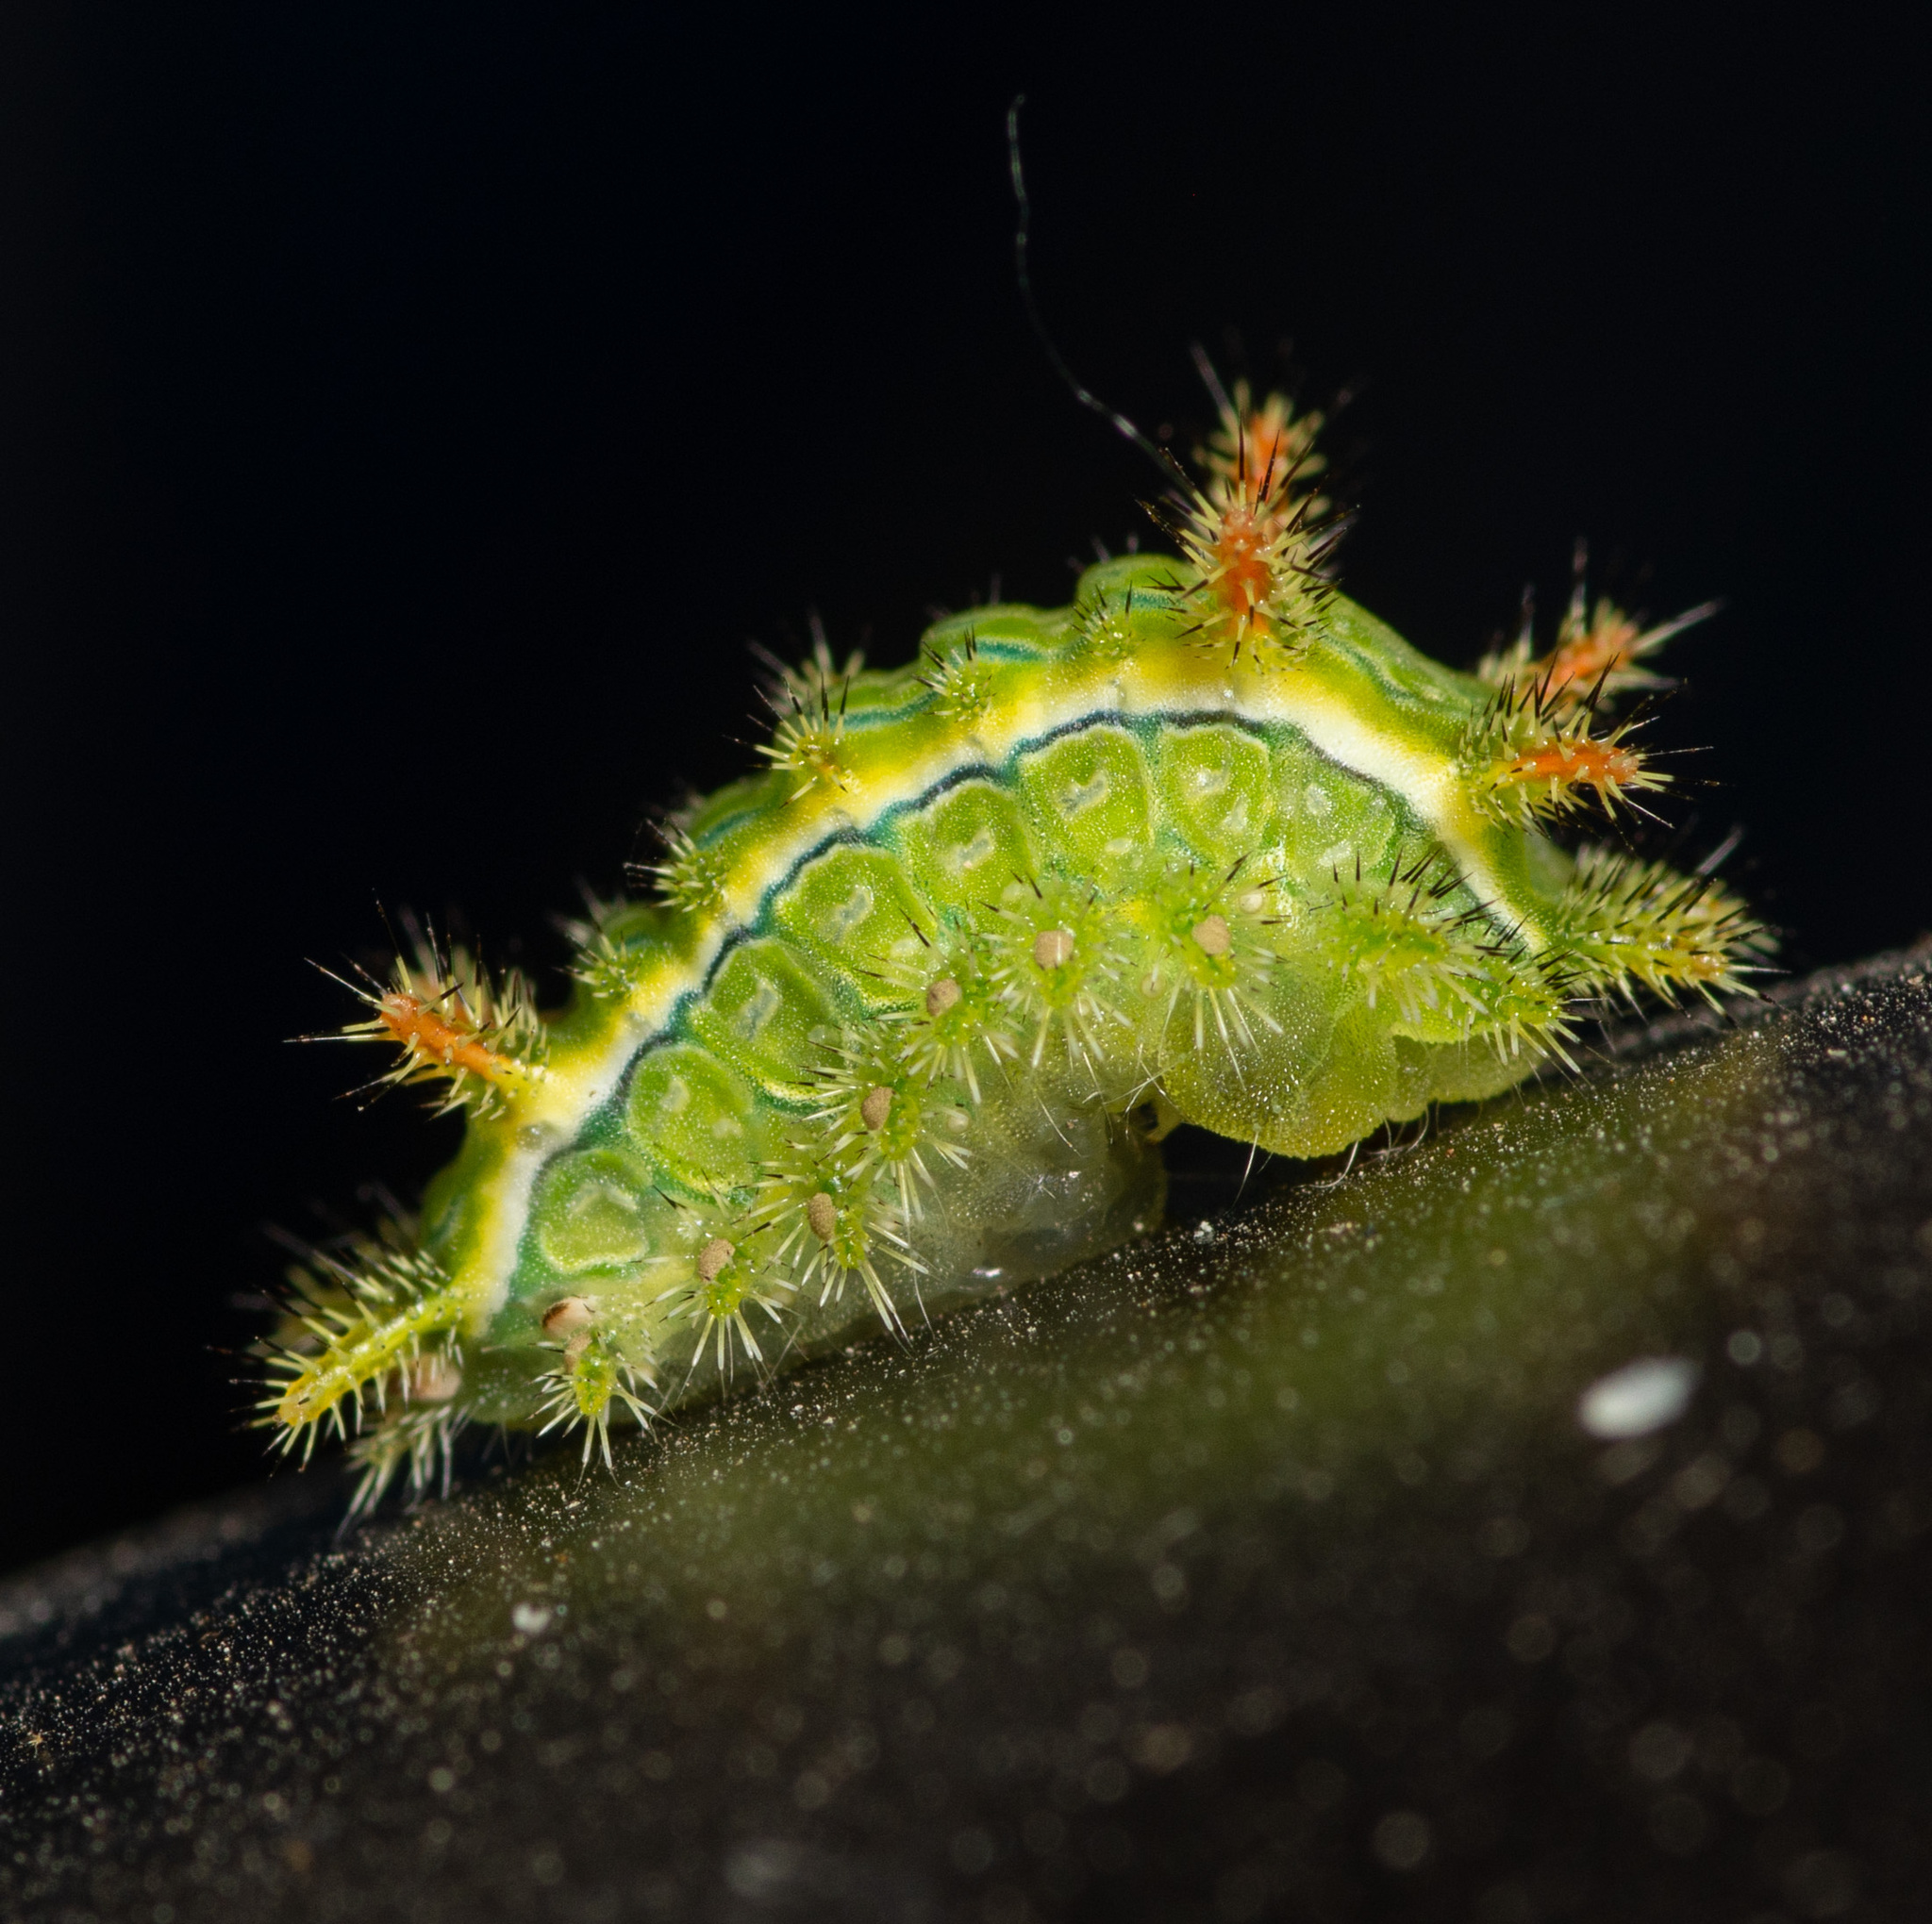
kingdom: Animalia
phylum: Arthropoda
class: Insecta
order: Lepidoptera
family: Limacodidae
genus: Euclea
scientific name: Euclea incisa
